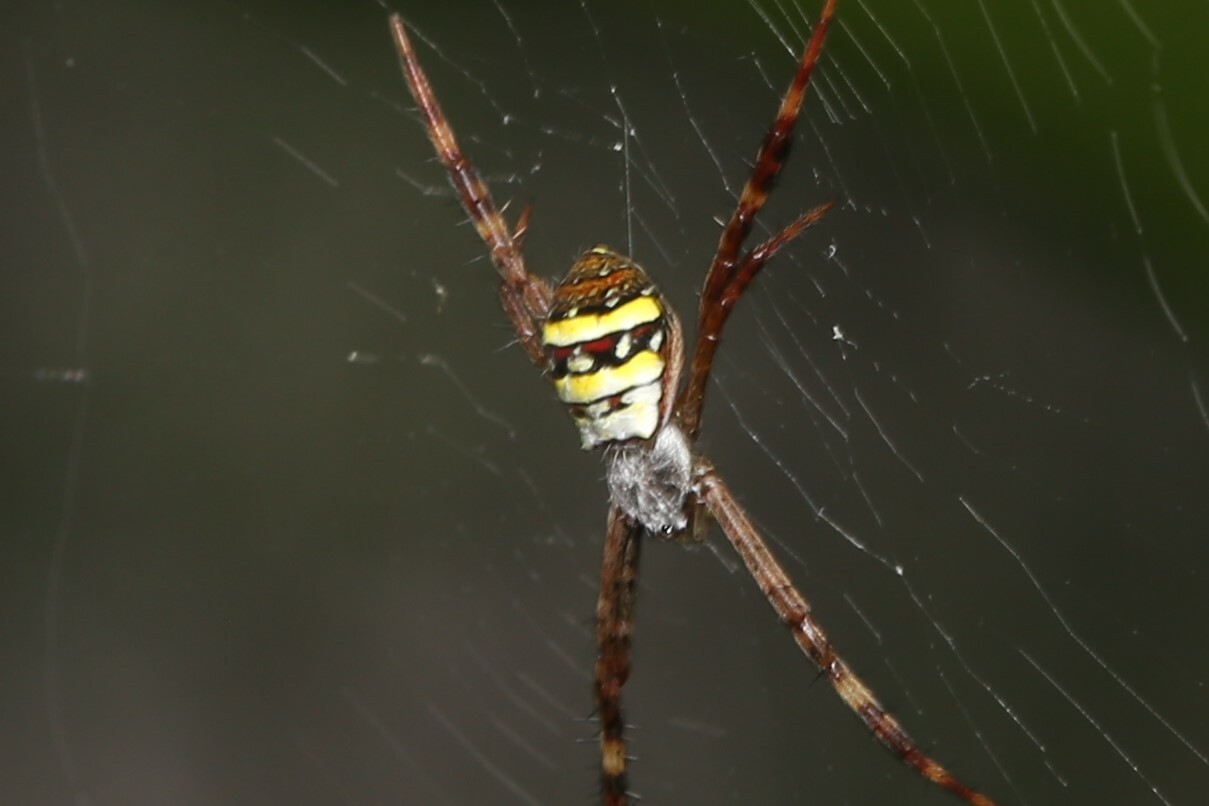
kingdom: Animalia
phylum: Arthropoda
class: Arachnida
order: Araneae
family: Araneidae
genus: Argiope
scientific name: Argiope keyserlingi
